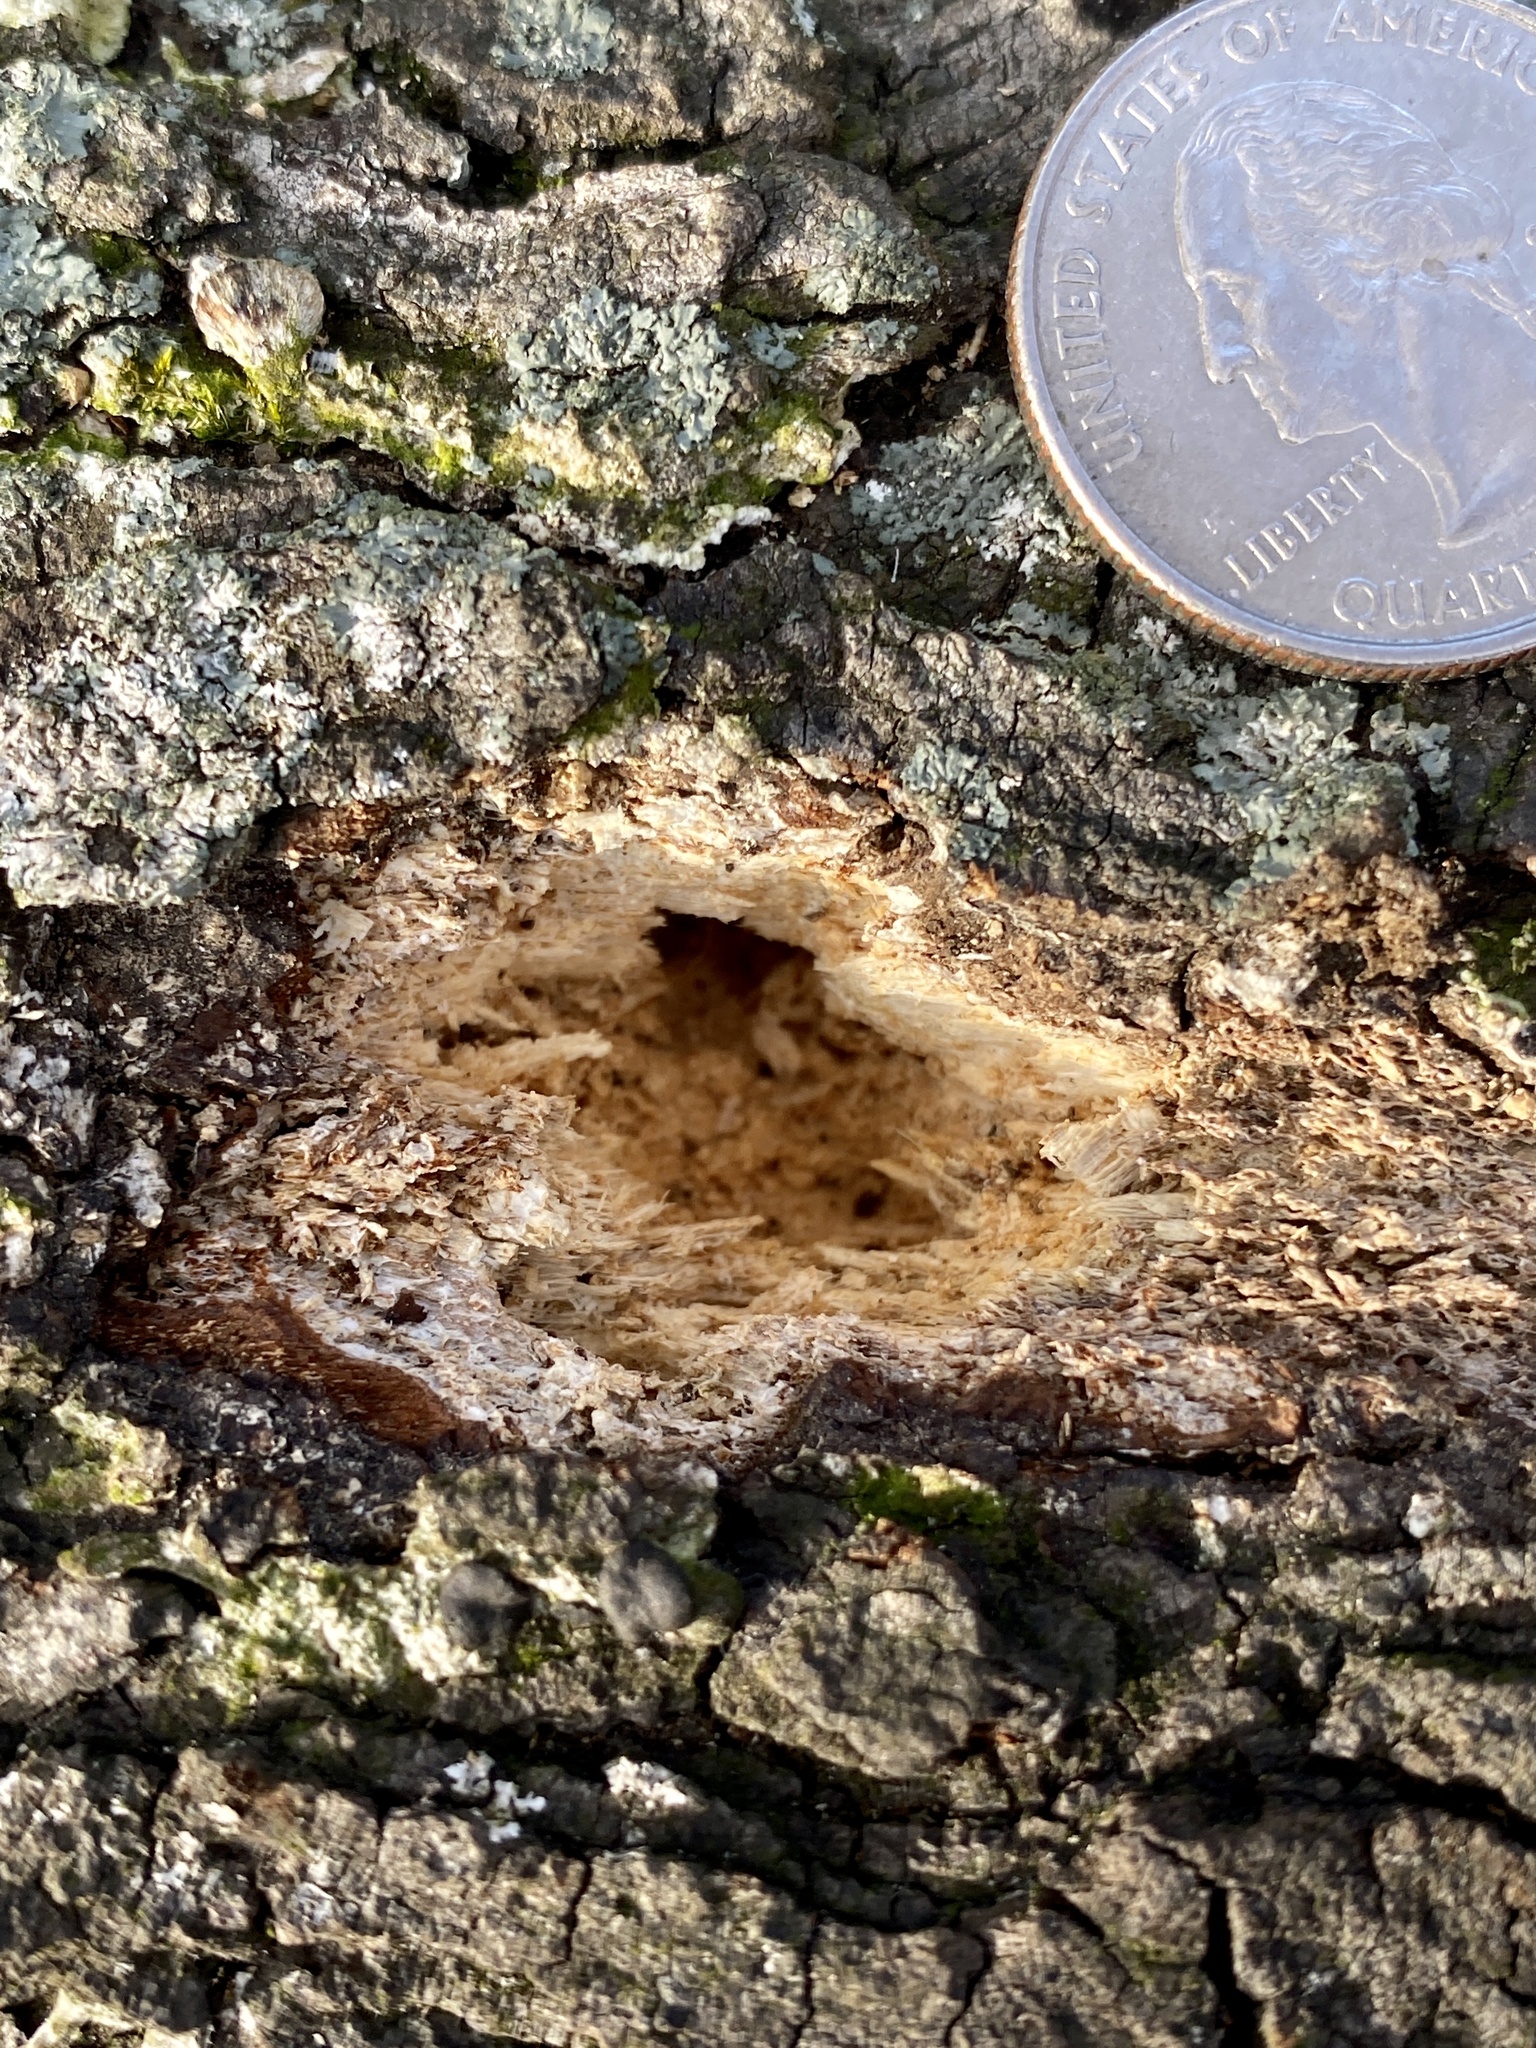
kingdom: Animalia
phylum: Chordata
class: Aves
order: Piciformes
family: Picidae
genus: Dryocopus
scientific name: Dryocopus pileatus
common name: Pileated woodpecker
